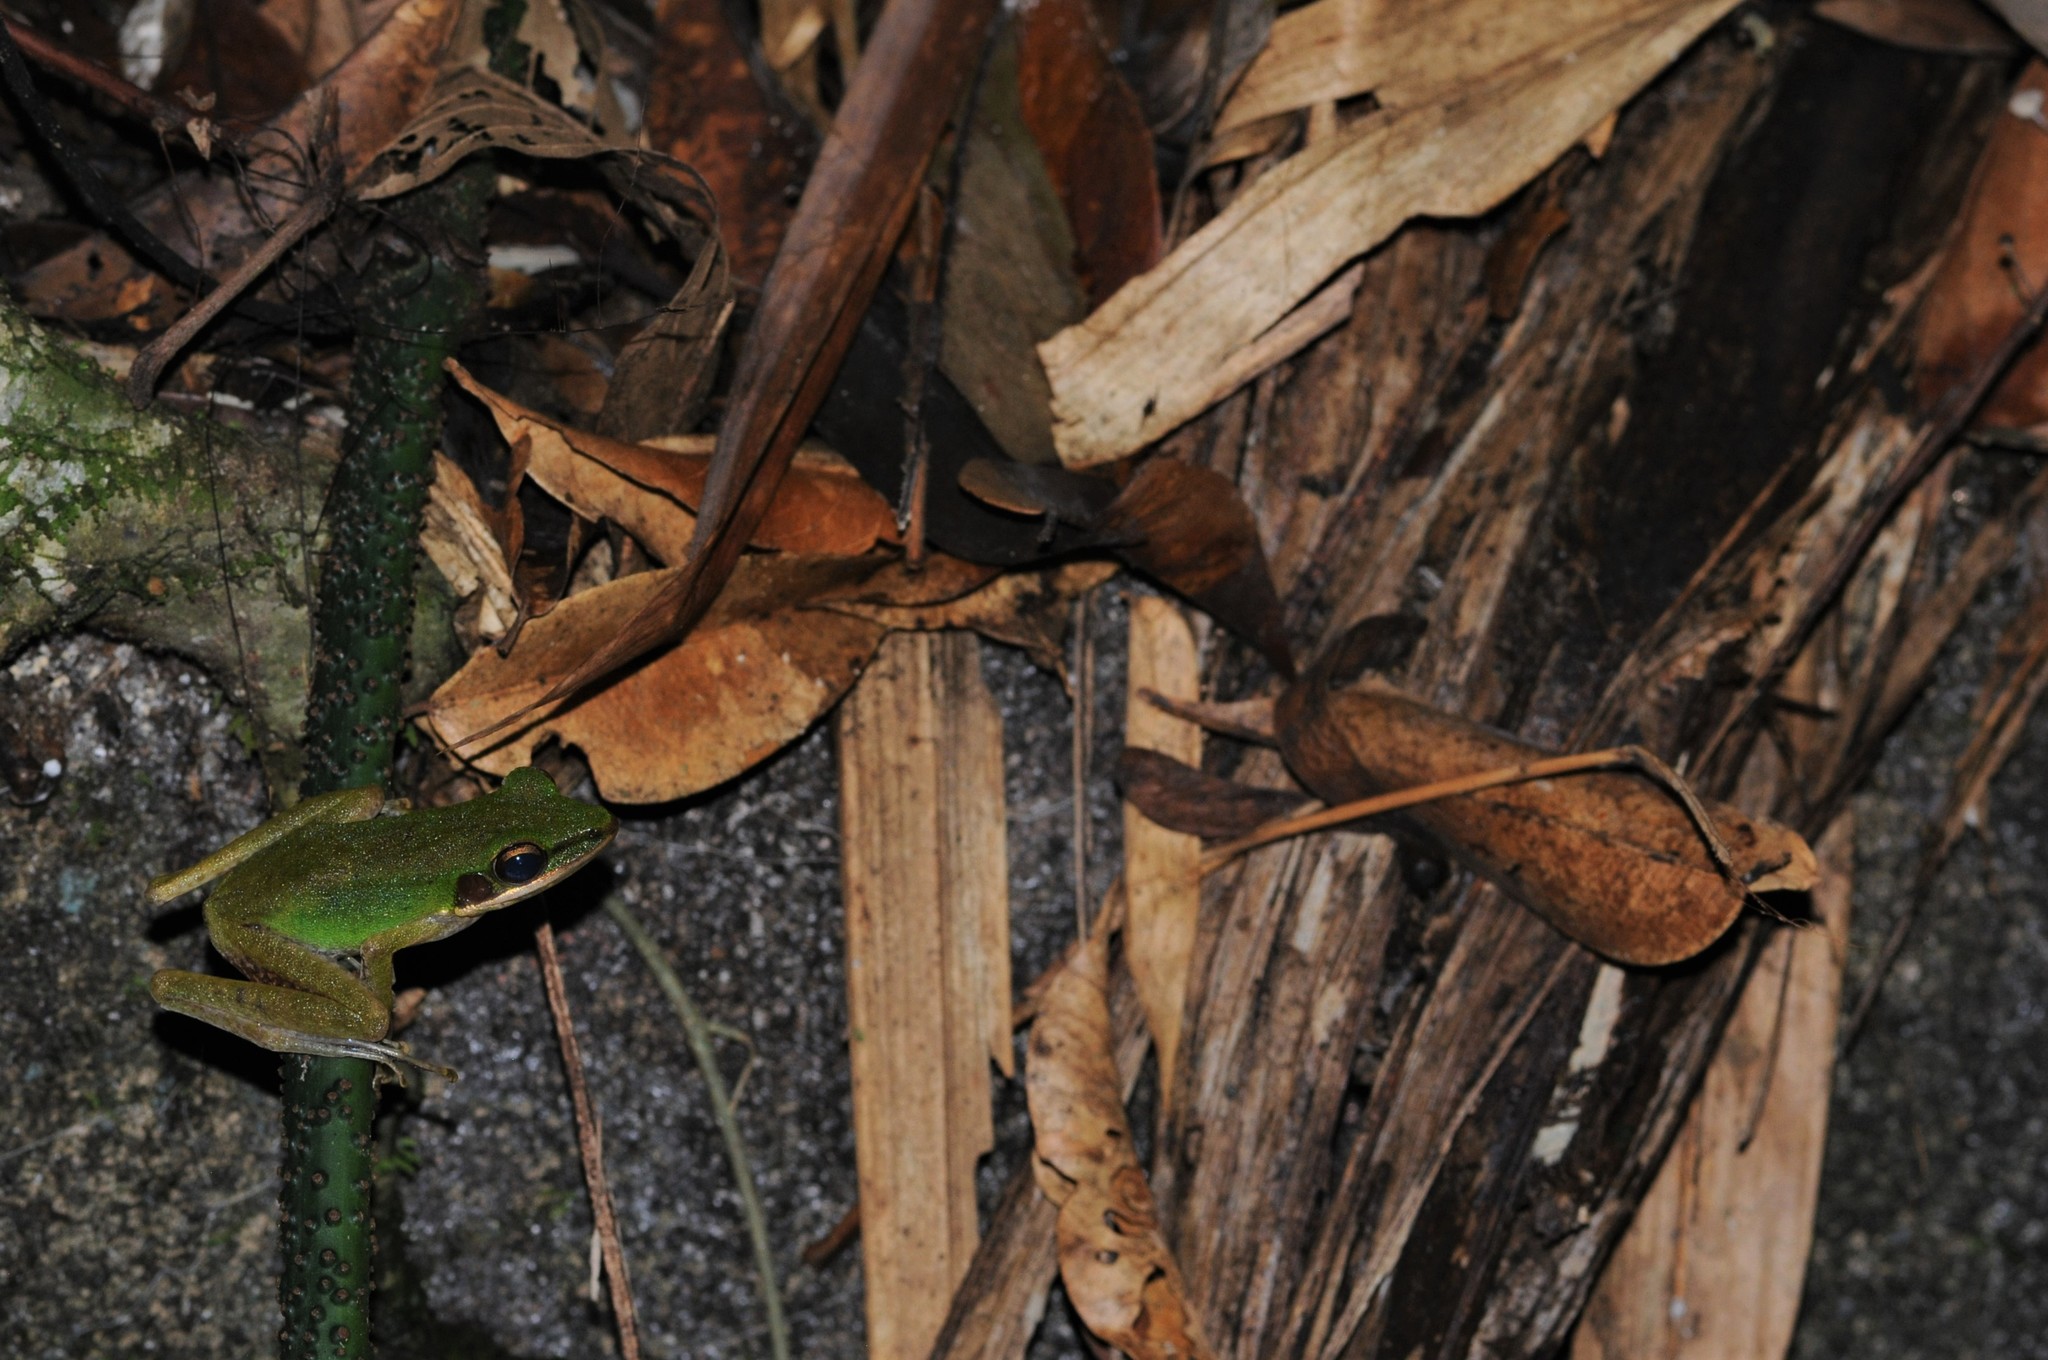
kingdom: Animalia
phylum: Chordata
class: Amphibia
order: Anura
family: Ranidae
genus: Chalcorana
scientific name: Chalcorana labialis
